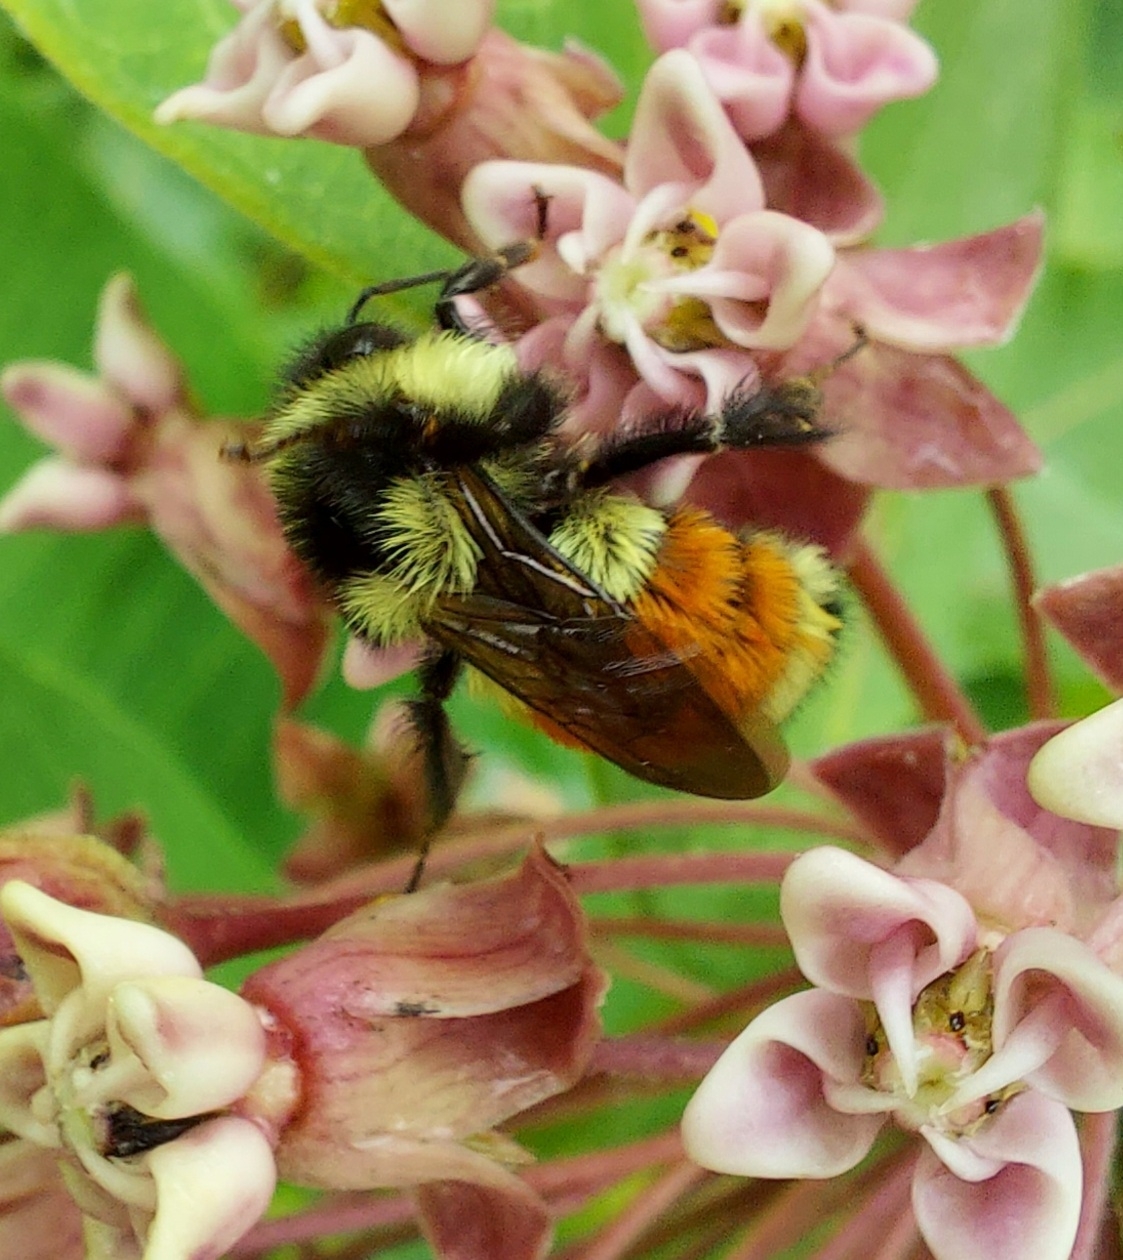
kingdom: Animalia
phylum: Arthropoda
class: Insecta
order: Hymenoptera
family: Apidae
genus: Bombus
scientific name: Bombus ternarius
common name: Tri-colored bumble bee
